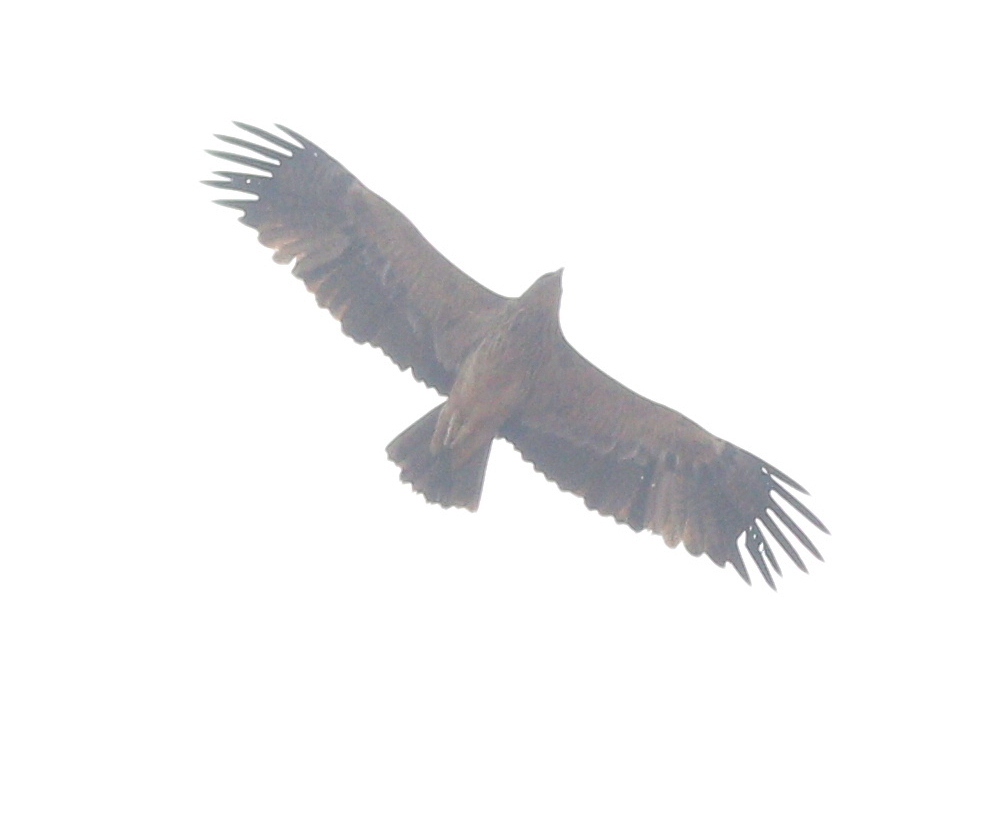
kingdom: Animalia
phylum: Chordata
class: Aves
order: Accipitriformes
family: Accipitridae
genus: Aquila
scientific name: Aquila heliaca
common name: Eastern imperial eagle
